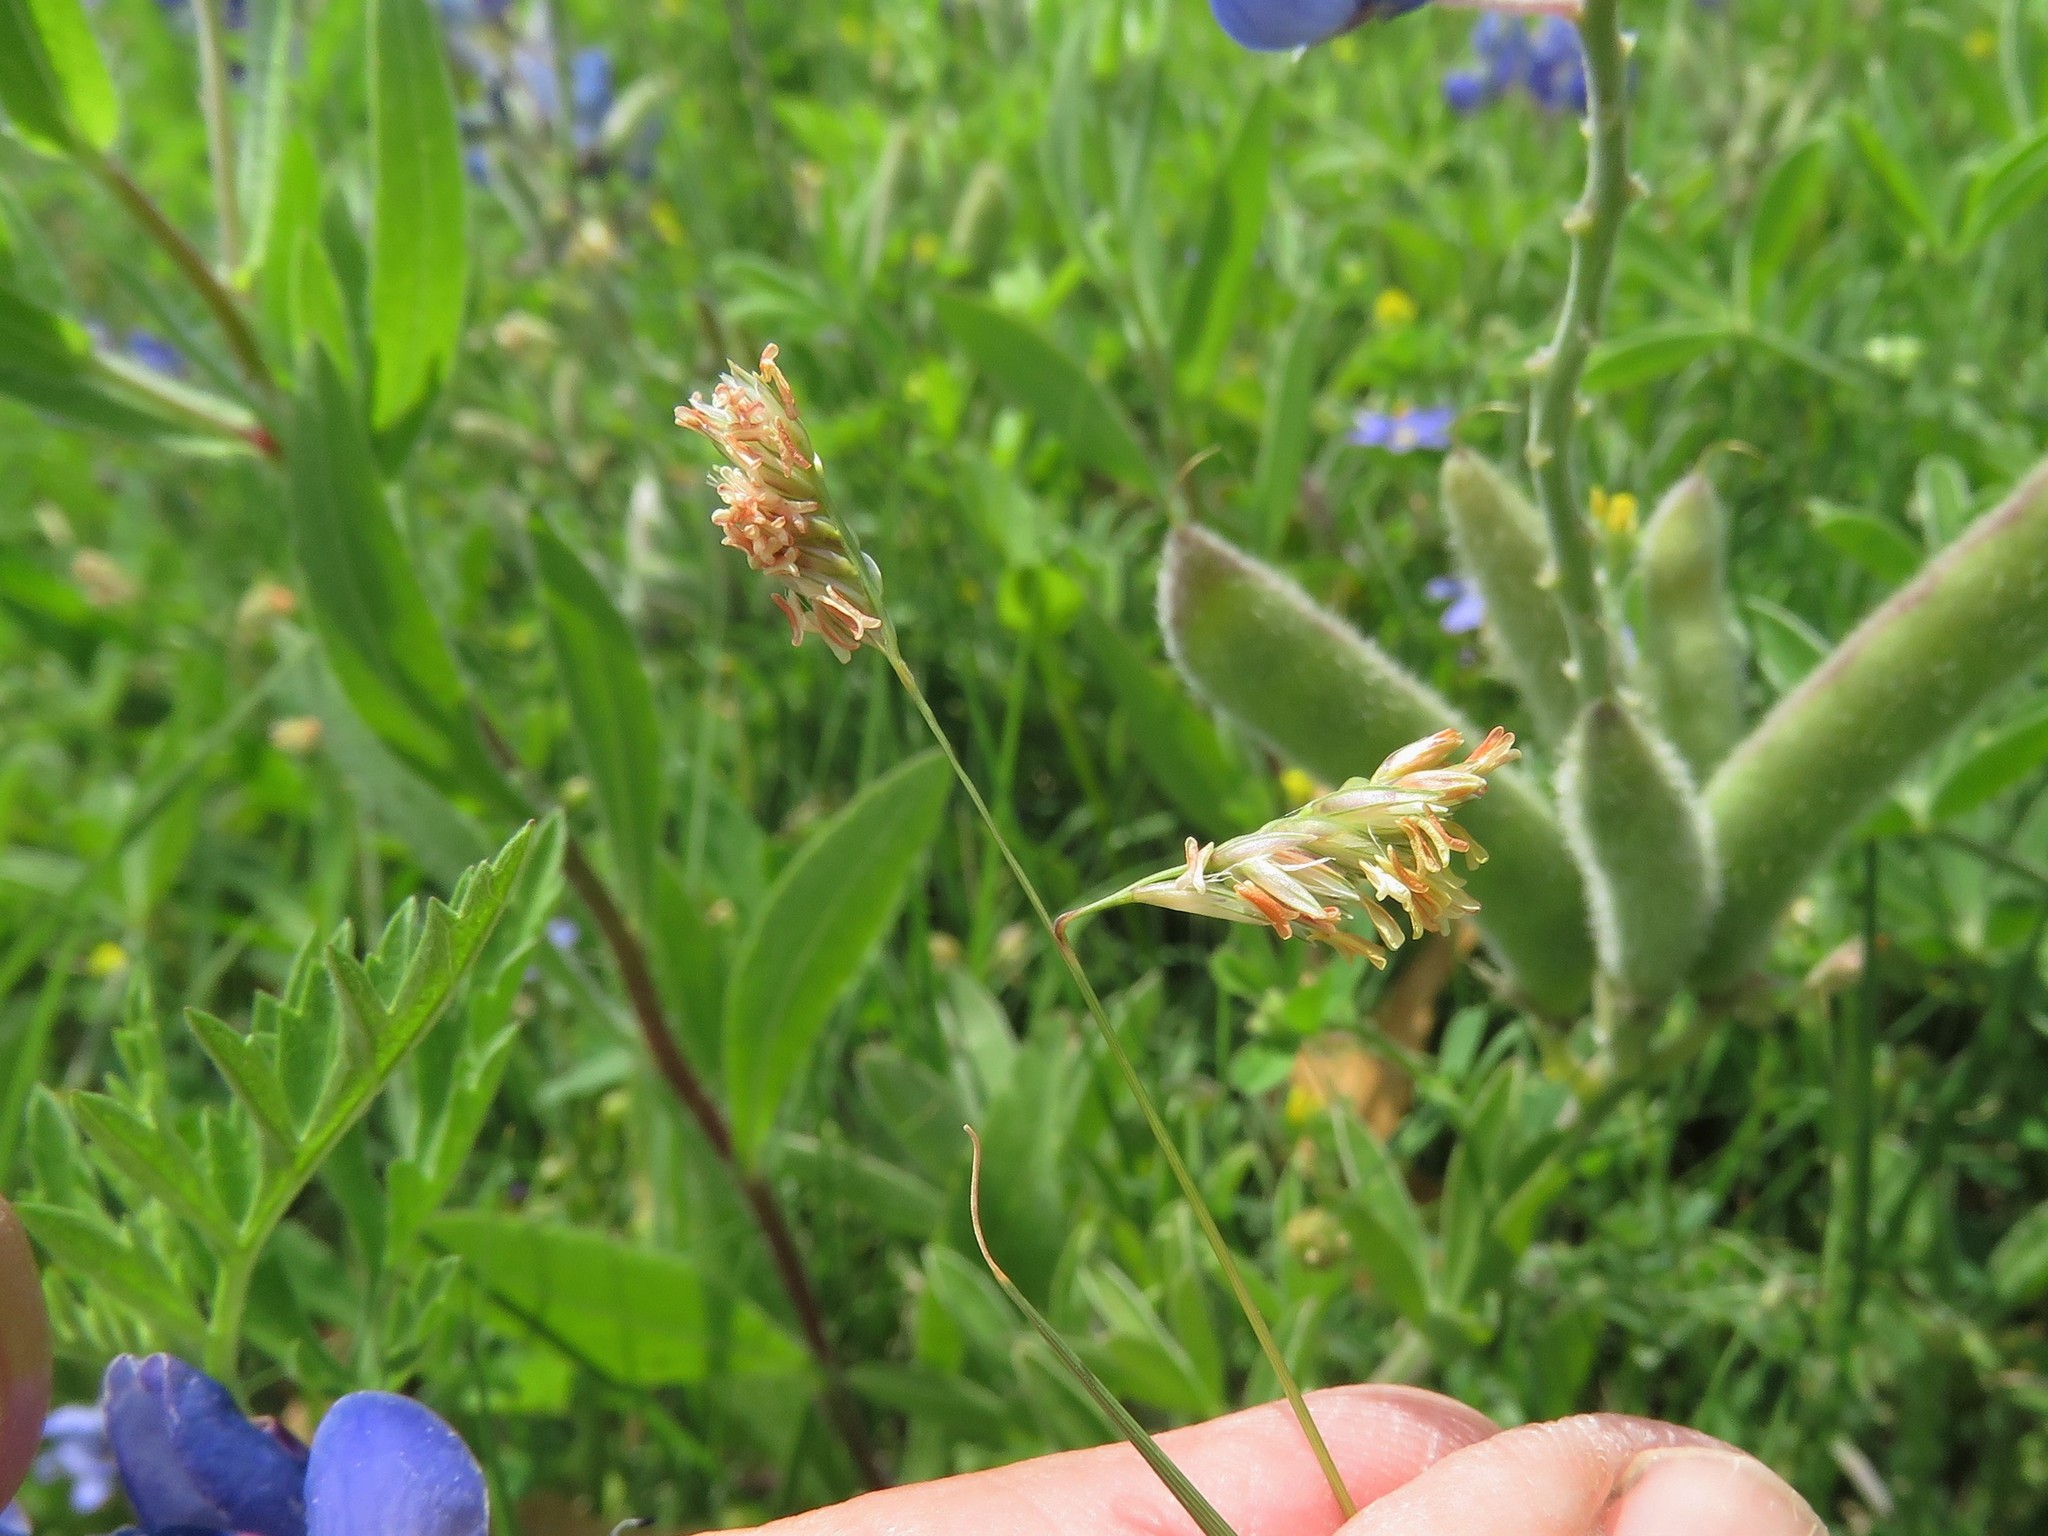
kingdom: Plantae
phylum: Tracheophyta
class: Liliopsida
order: Poales
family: Poaceae
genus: Bouteloua
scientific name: Bouteloua dactyloides
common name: Buffalo grass
